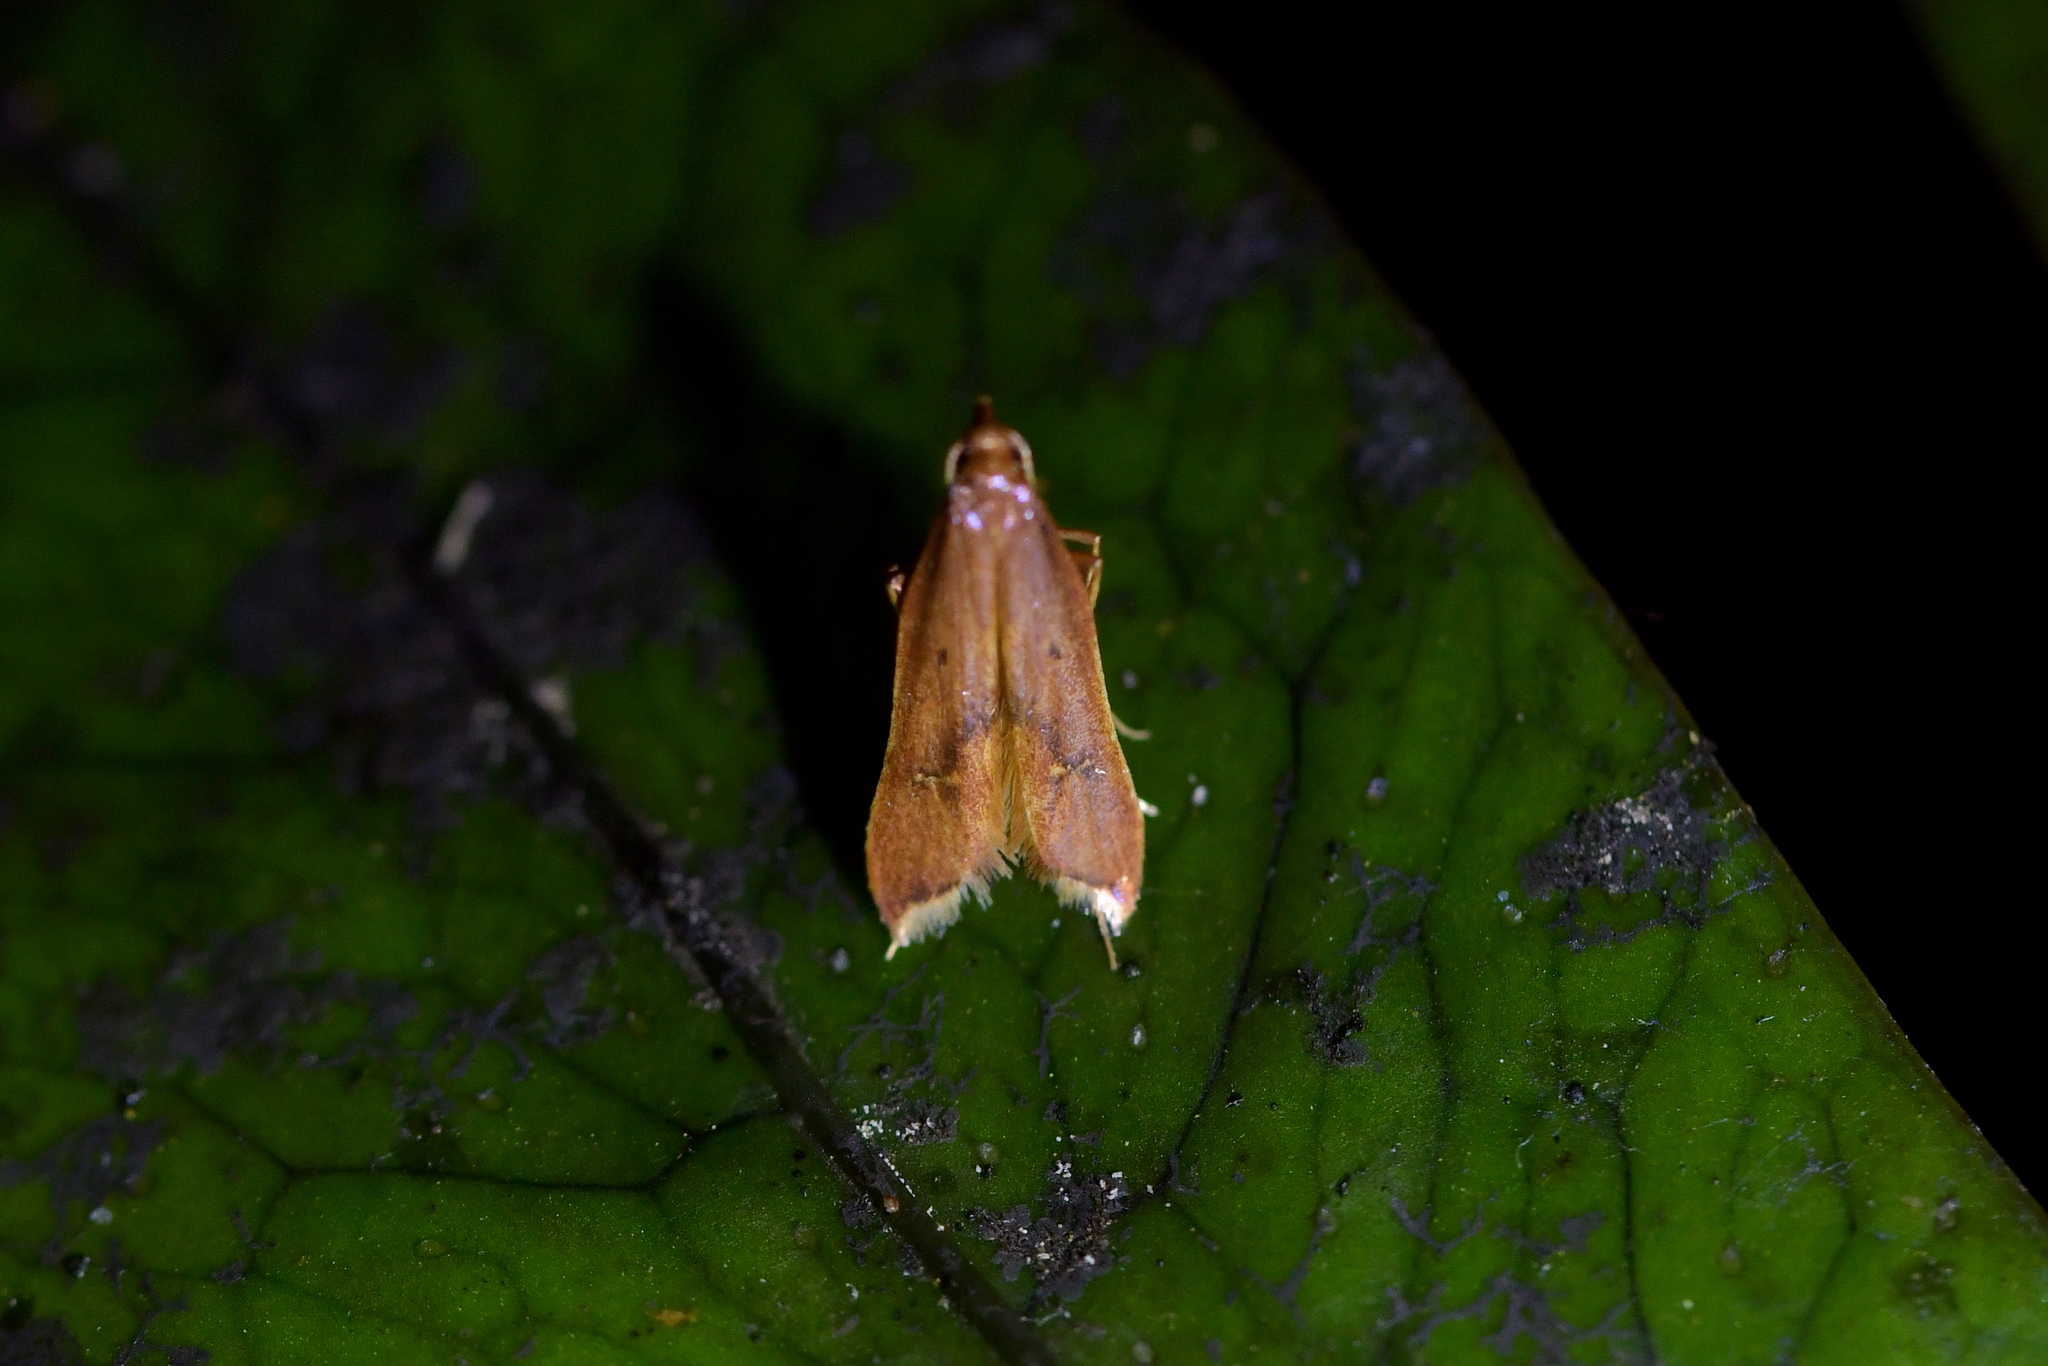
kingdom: Animalia
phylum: Arthropoda
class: Insecta
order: Lepidoptera
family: Epermeniidae
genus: Thambotricha
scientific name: Thambotricha vates
